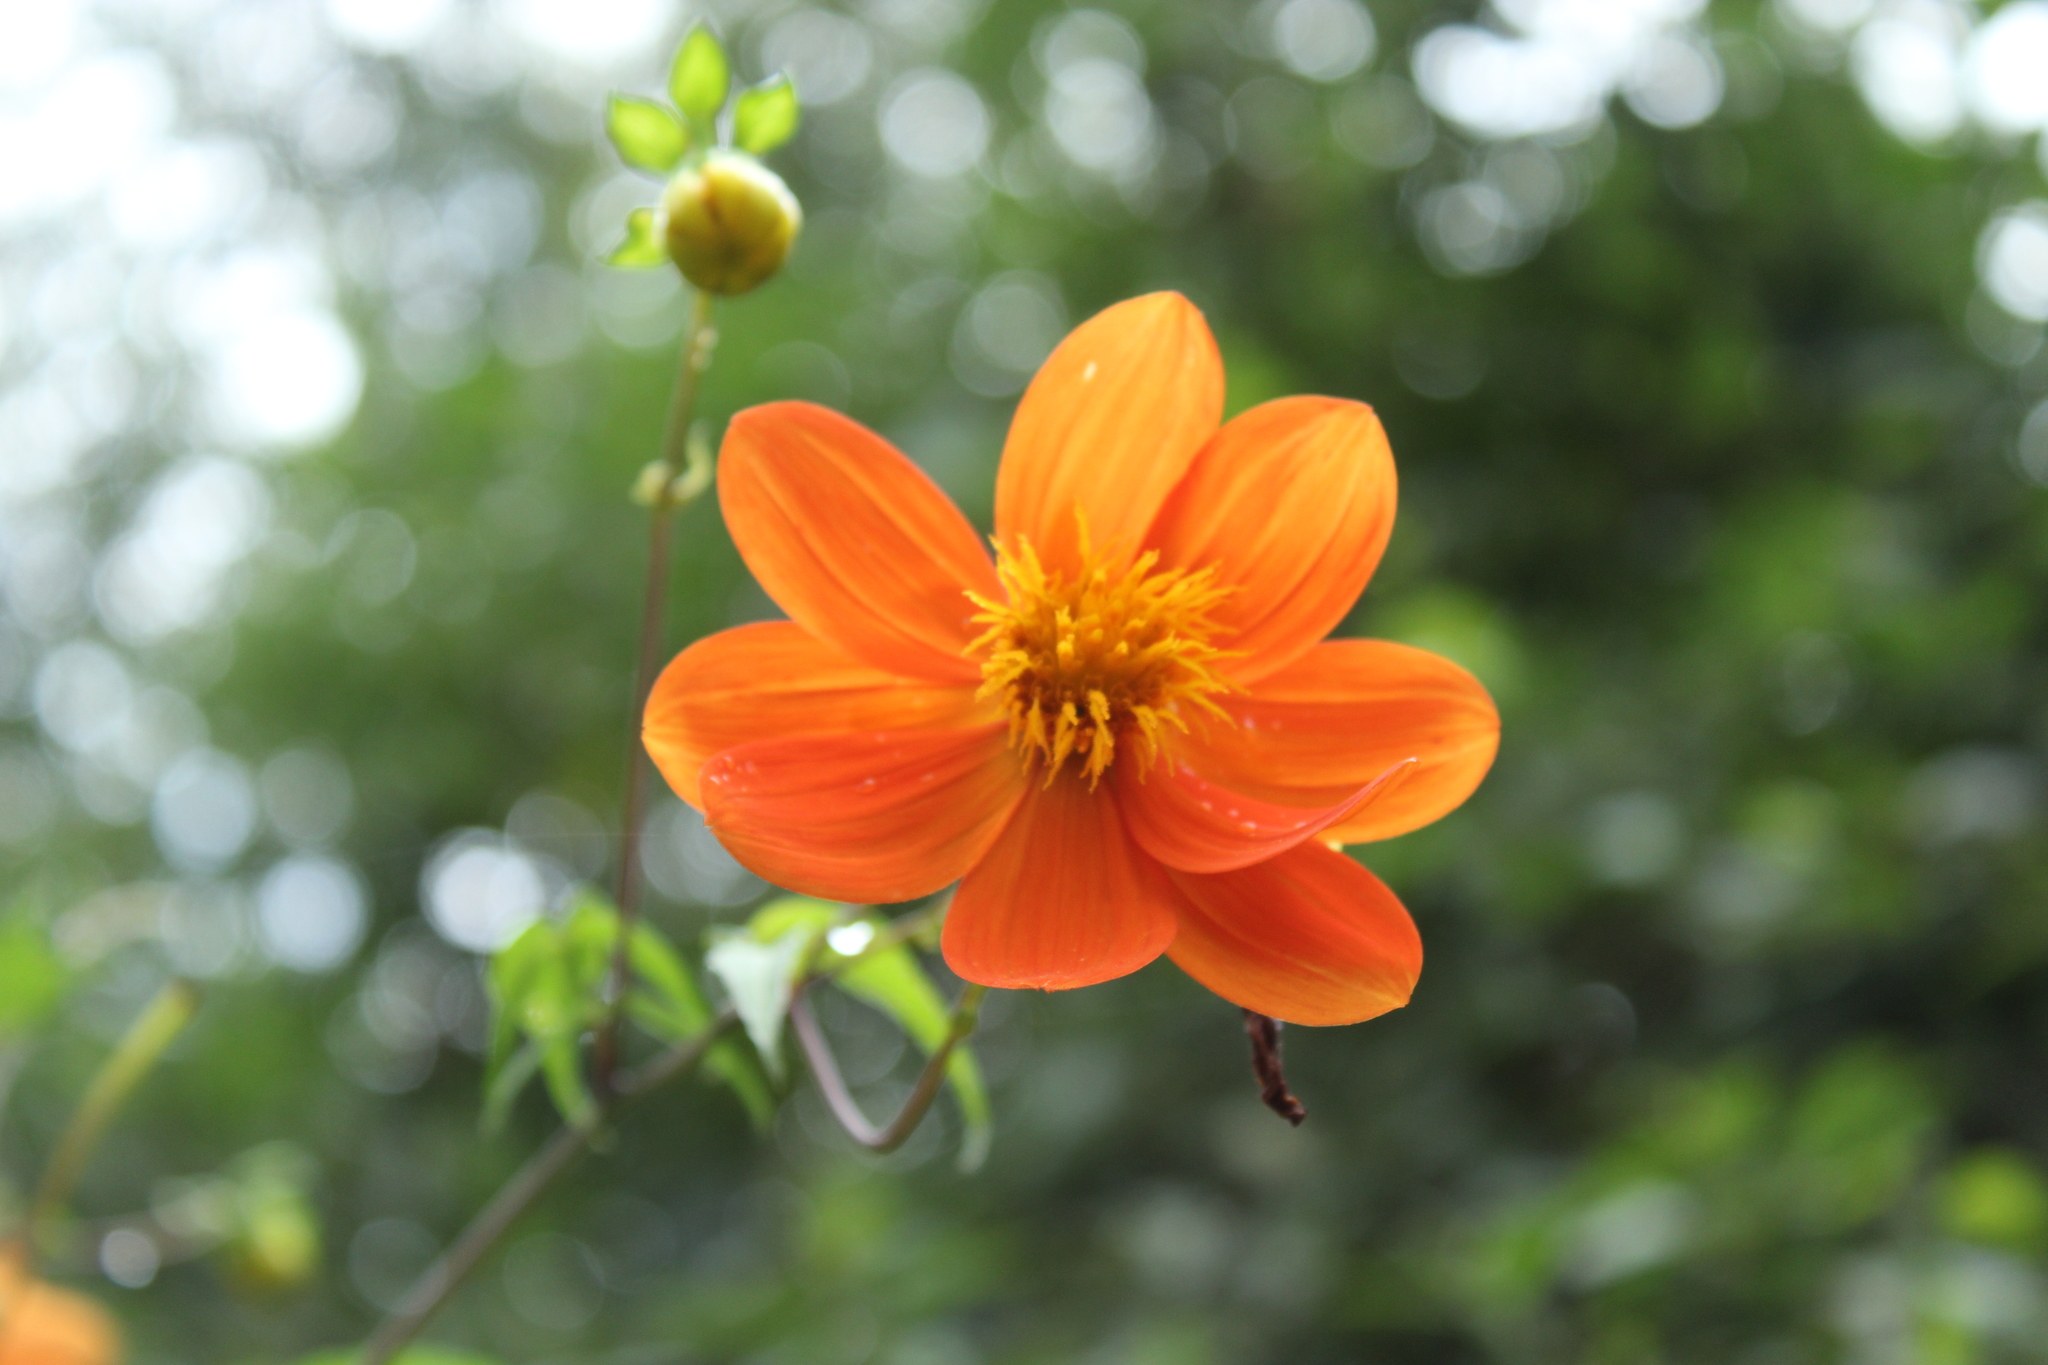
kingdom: Plantae
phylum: Tracheophyta
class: Magnoliopsida
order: Asterales
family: Asteraceae
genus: Dahlia
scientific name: Dahlia coccinea
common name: Red dahlia
